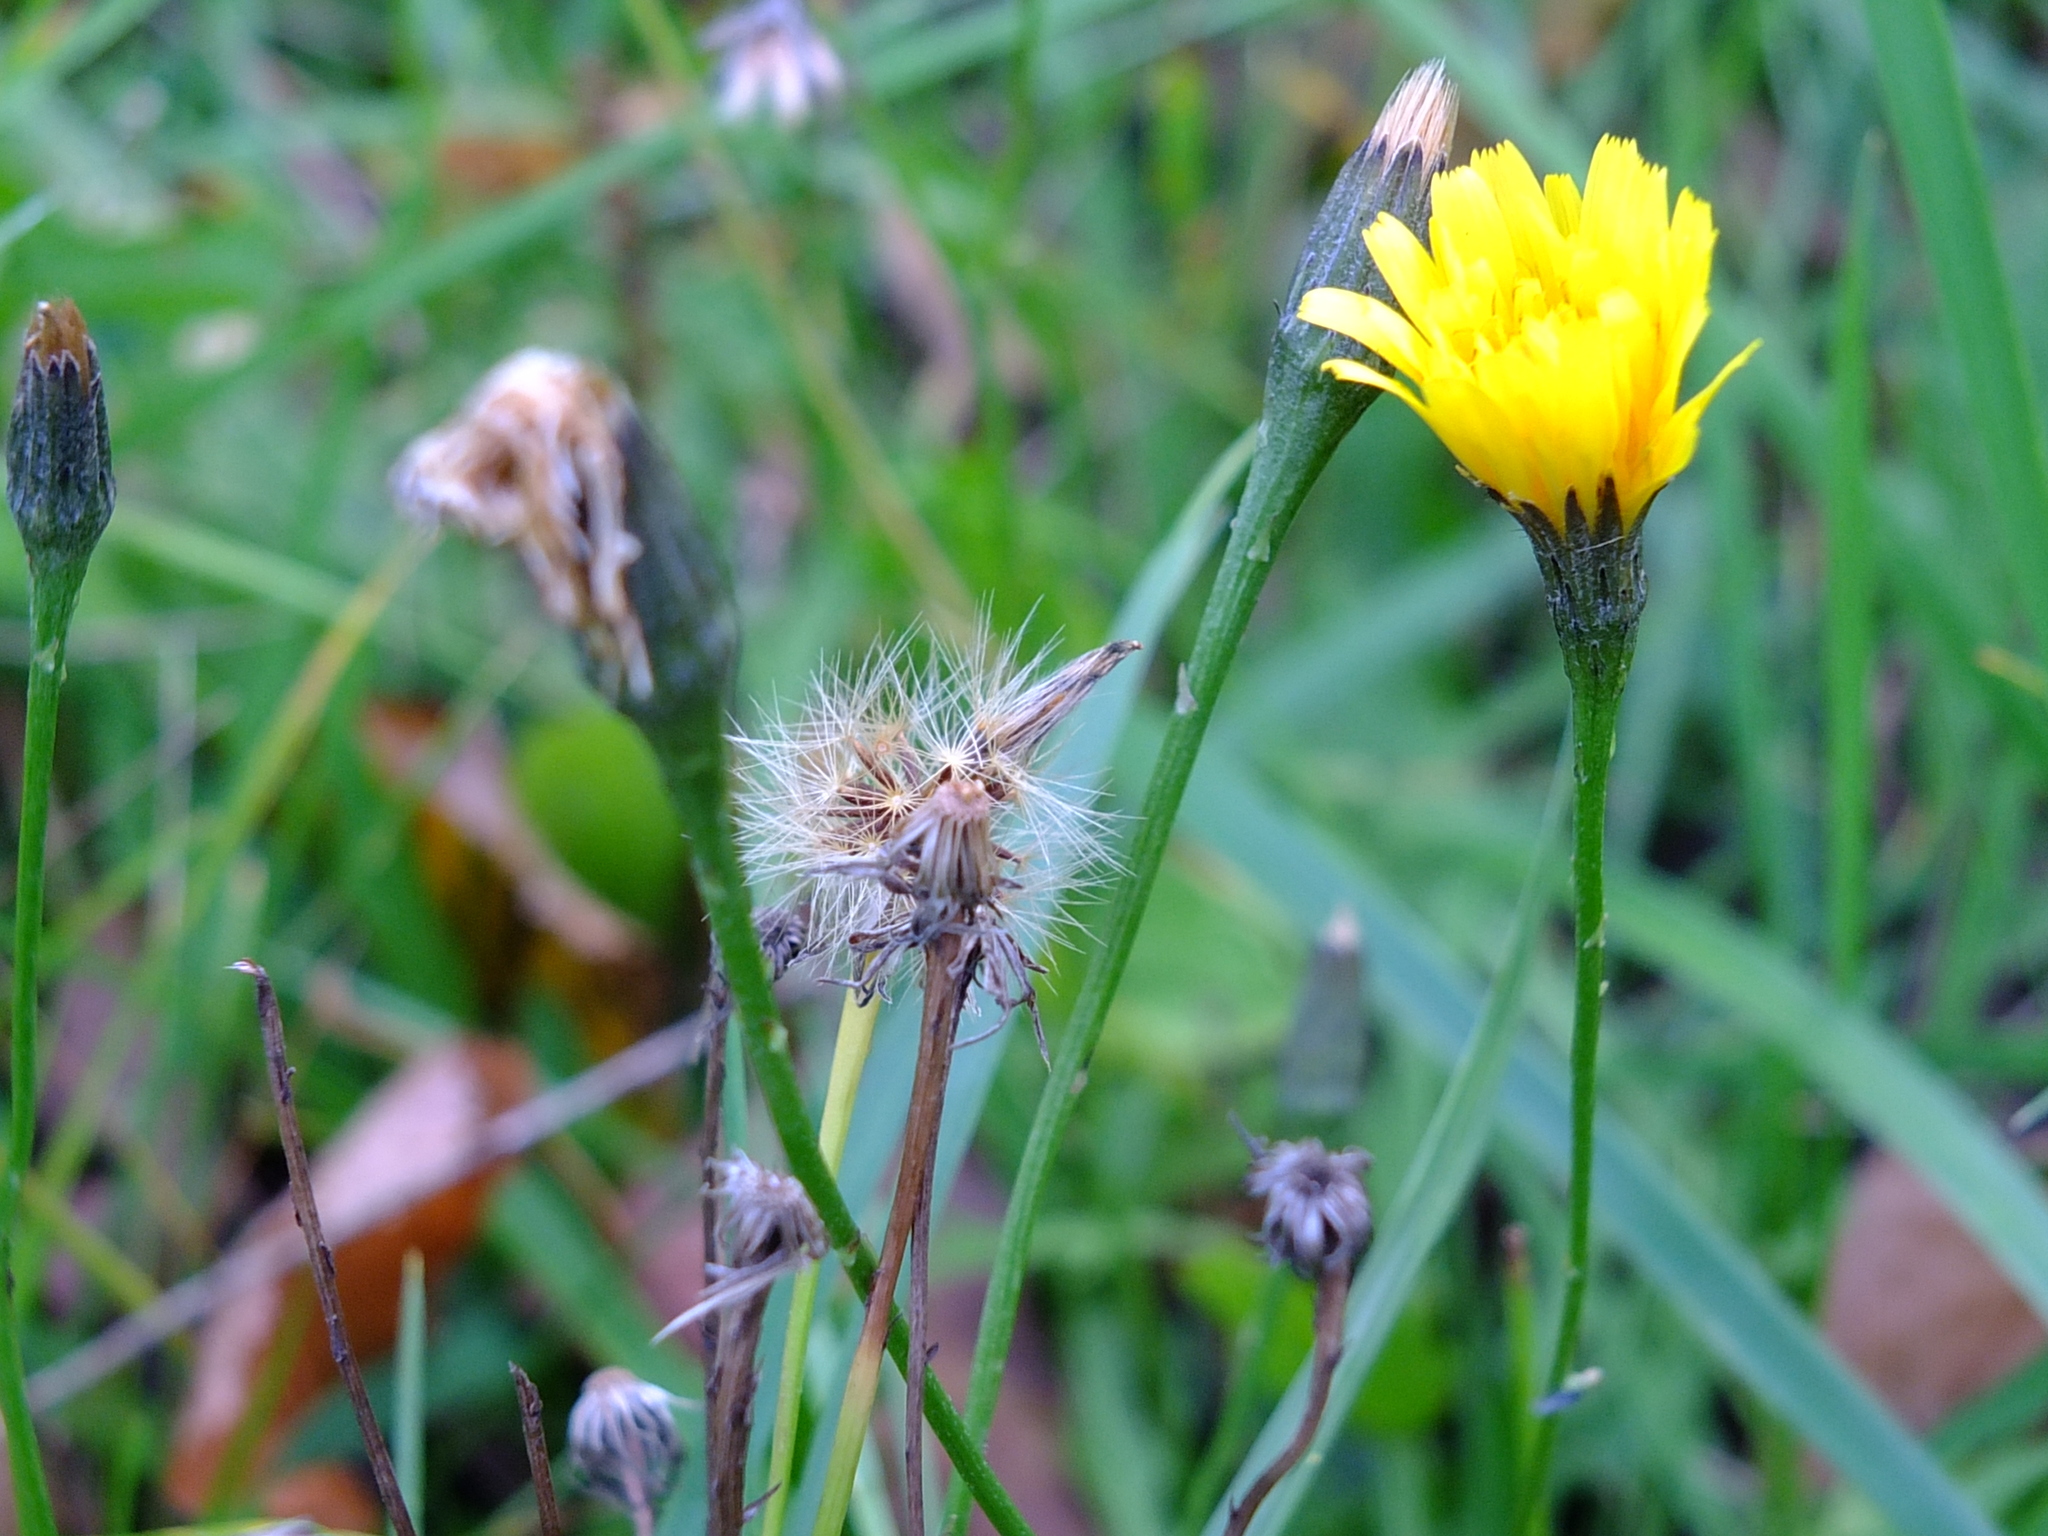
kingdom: Plantae
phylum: Tracheophyta
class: Magnoliopsida
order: Asterales
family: Asteraceae
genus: Scorzoneroides
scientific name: Scorzoneroides autumnalis
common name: Autumn hawkbit
